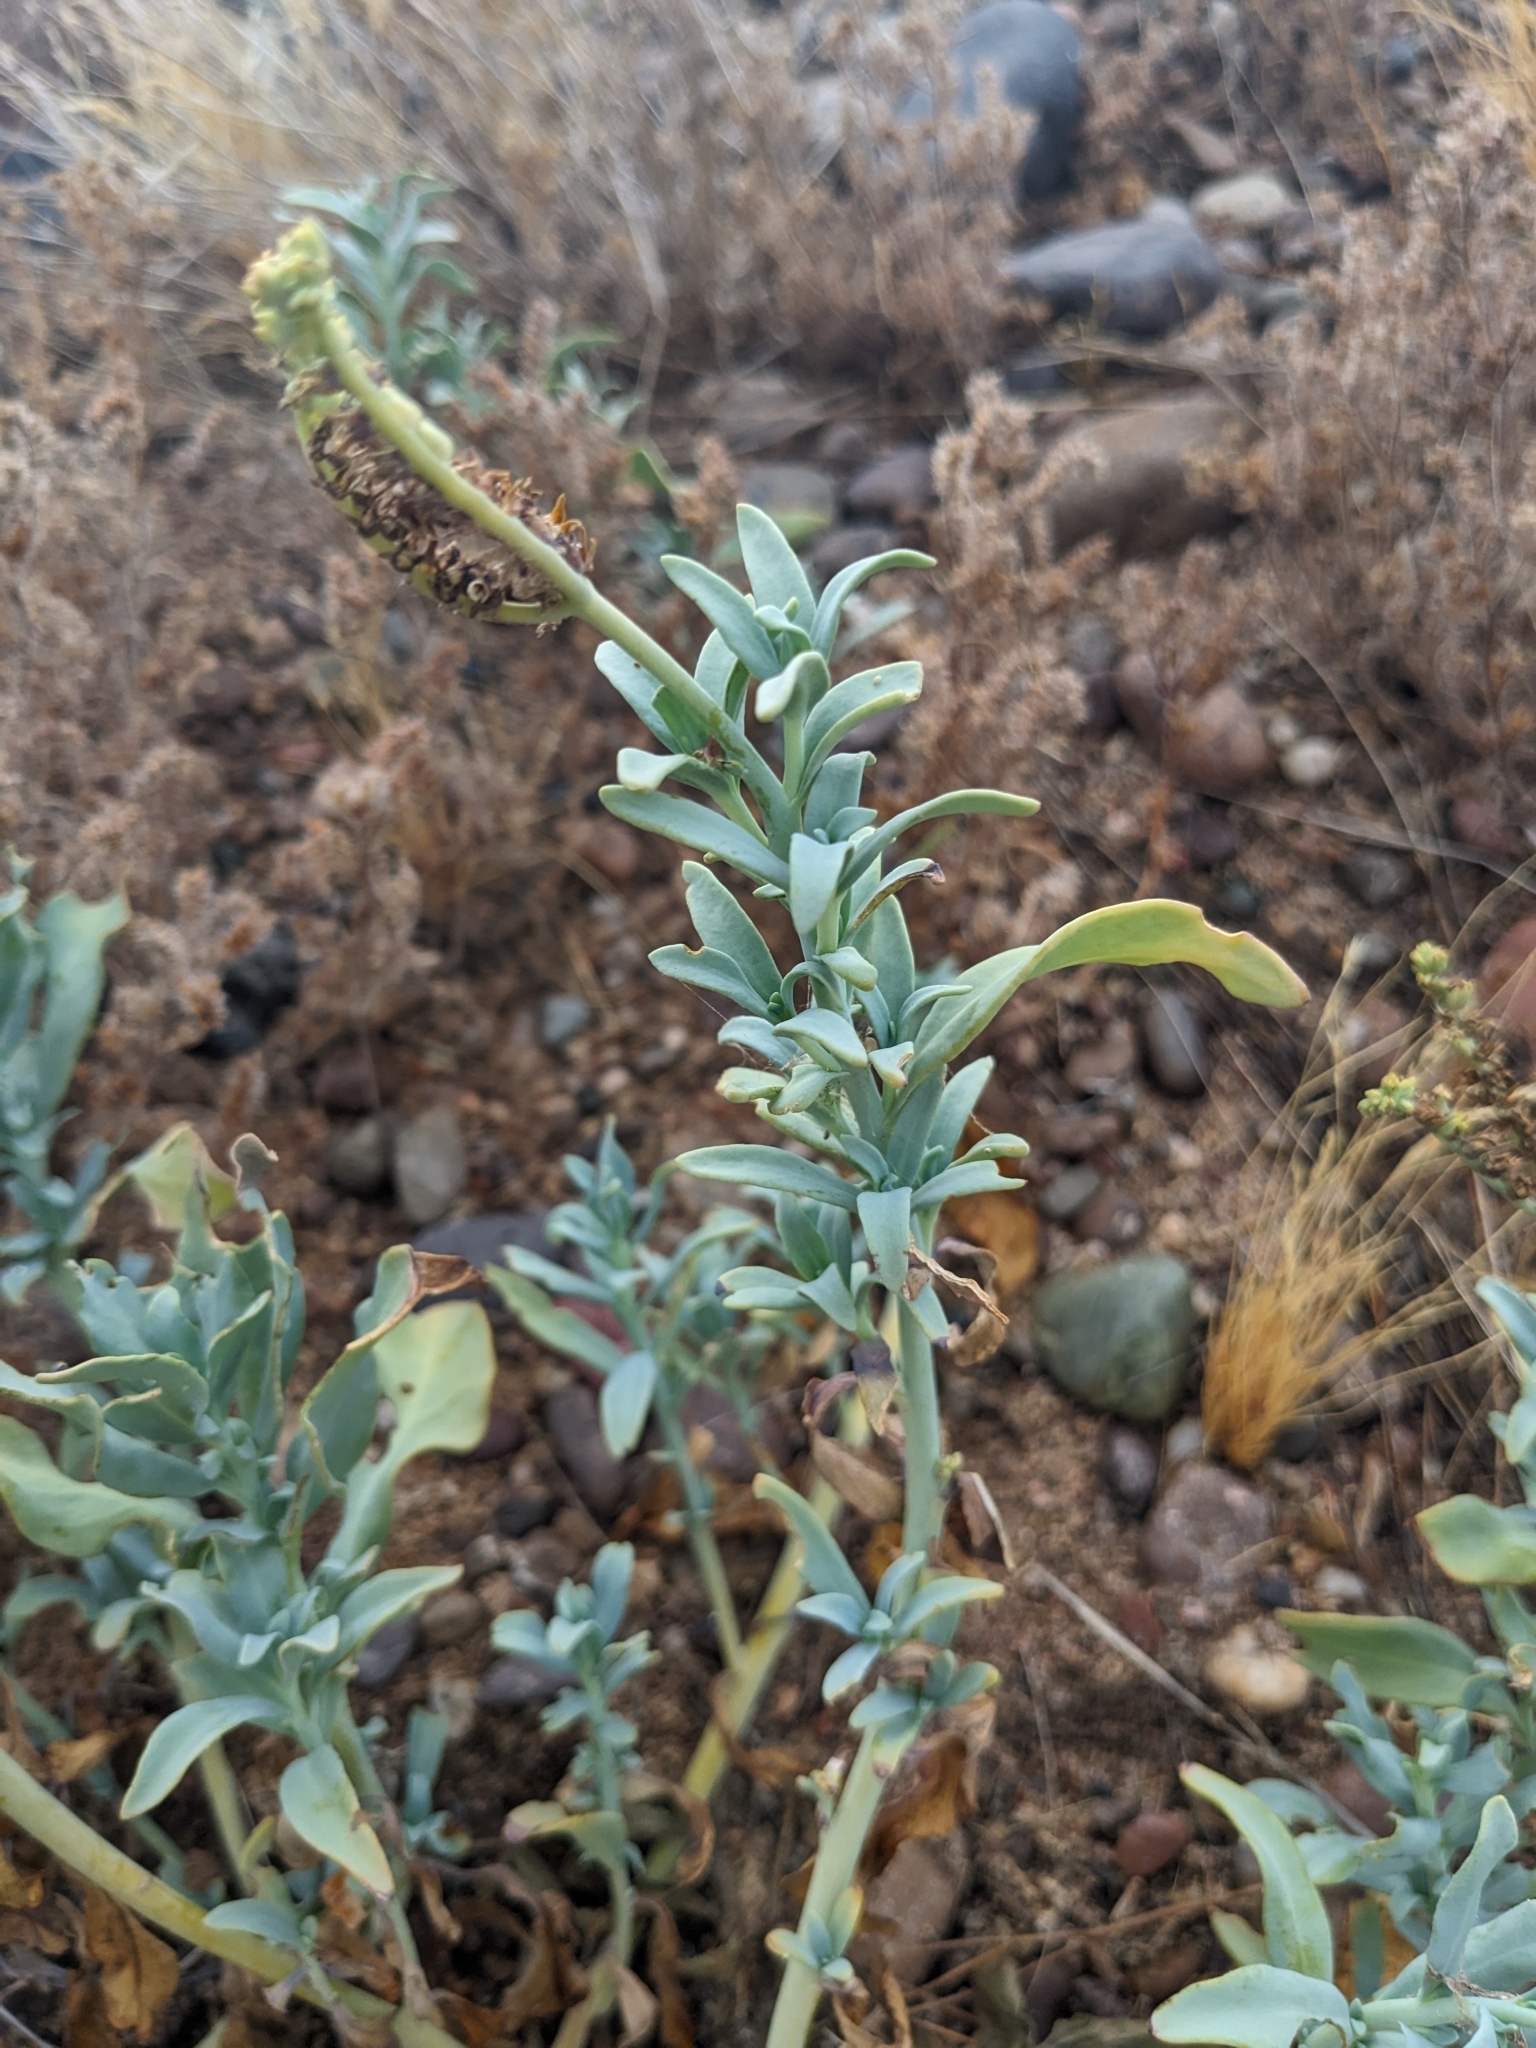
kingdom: Plantae
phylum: Tracheophyta
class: Magnoliopsida
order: Boraginales
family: Heliotropiaceae
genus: Heliotropium
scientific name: Heliotropium curassavicum
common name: Seaside heliotrope
